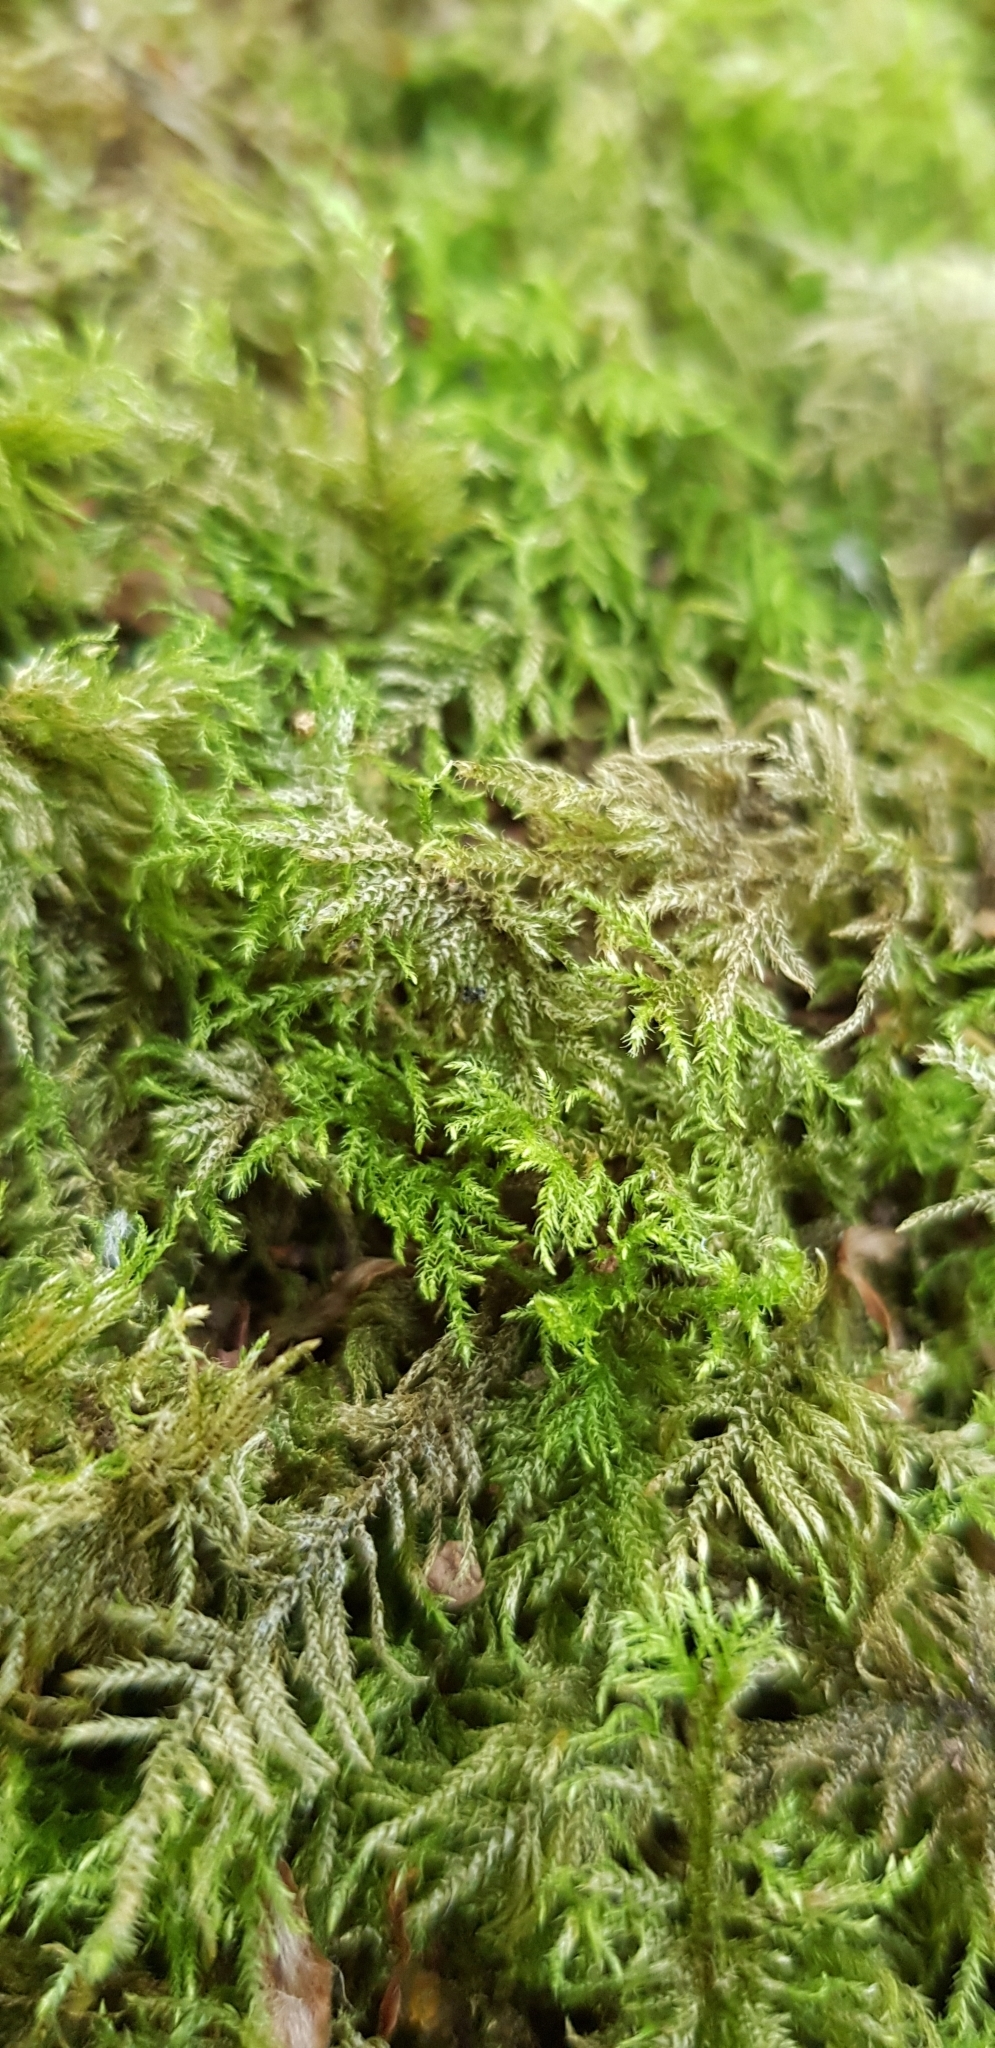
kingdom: Plantae
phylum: Bryophyta
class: Bryopsida
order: Hypnales
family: Lembophyllaceae
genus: Pseudisothecium
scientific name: Pseudisothecium myosuroides
